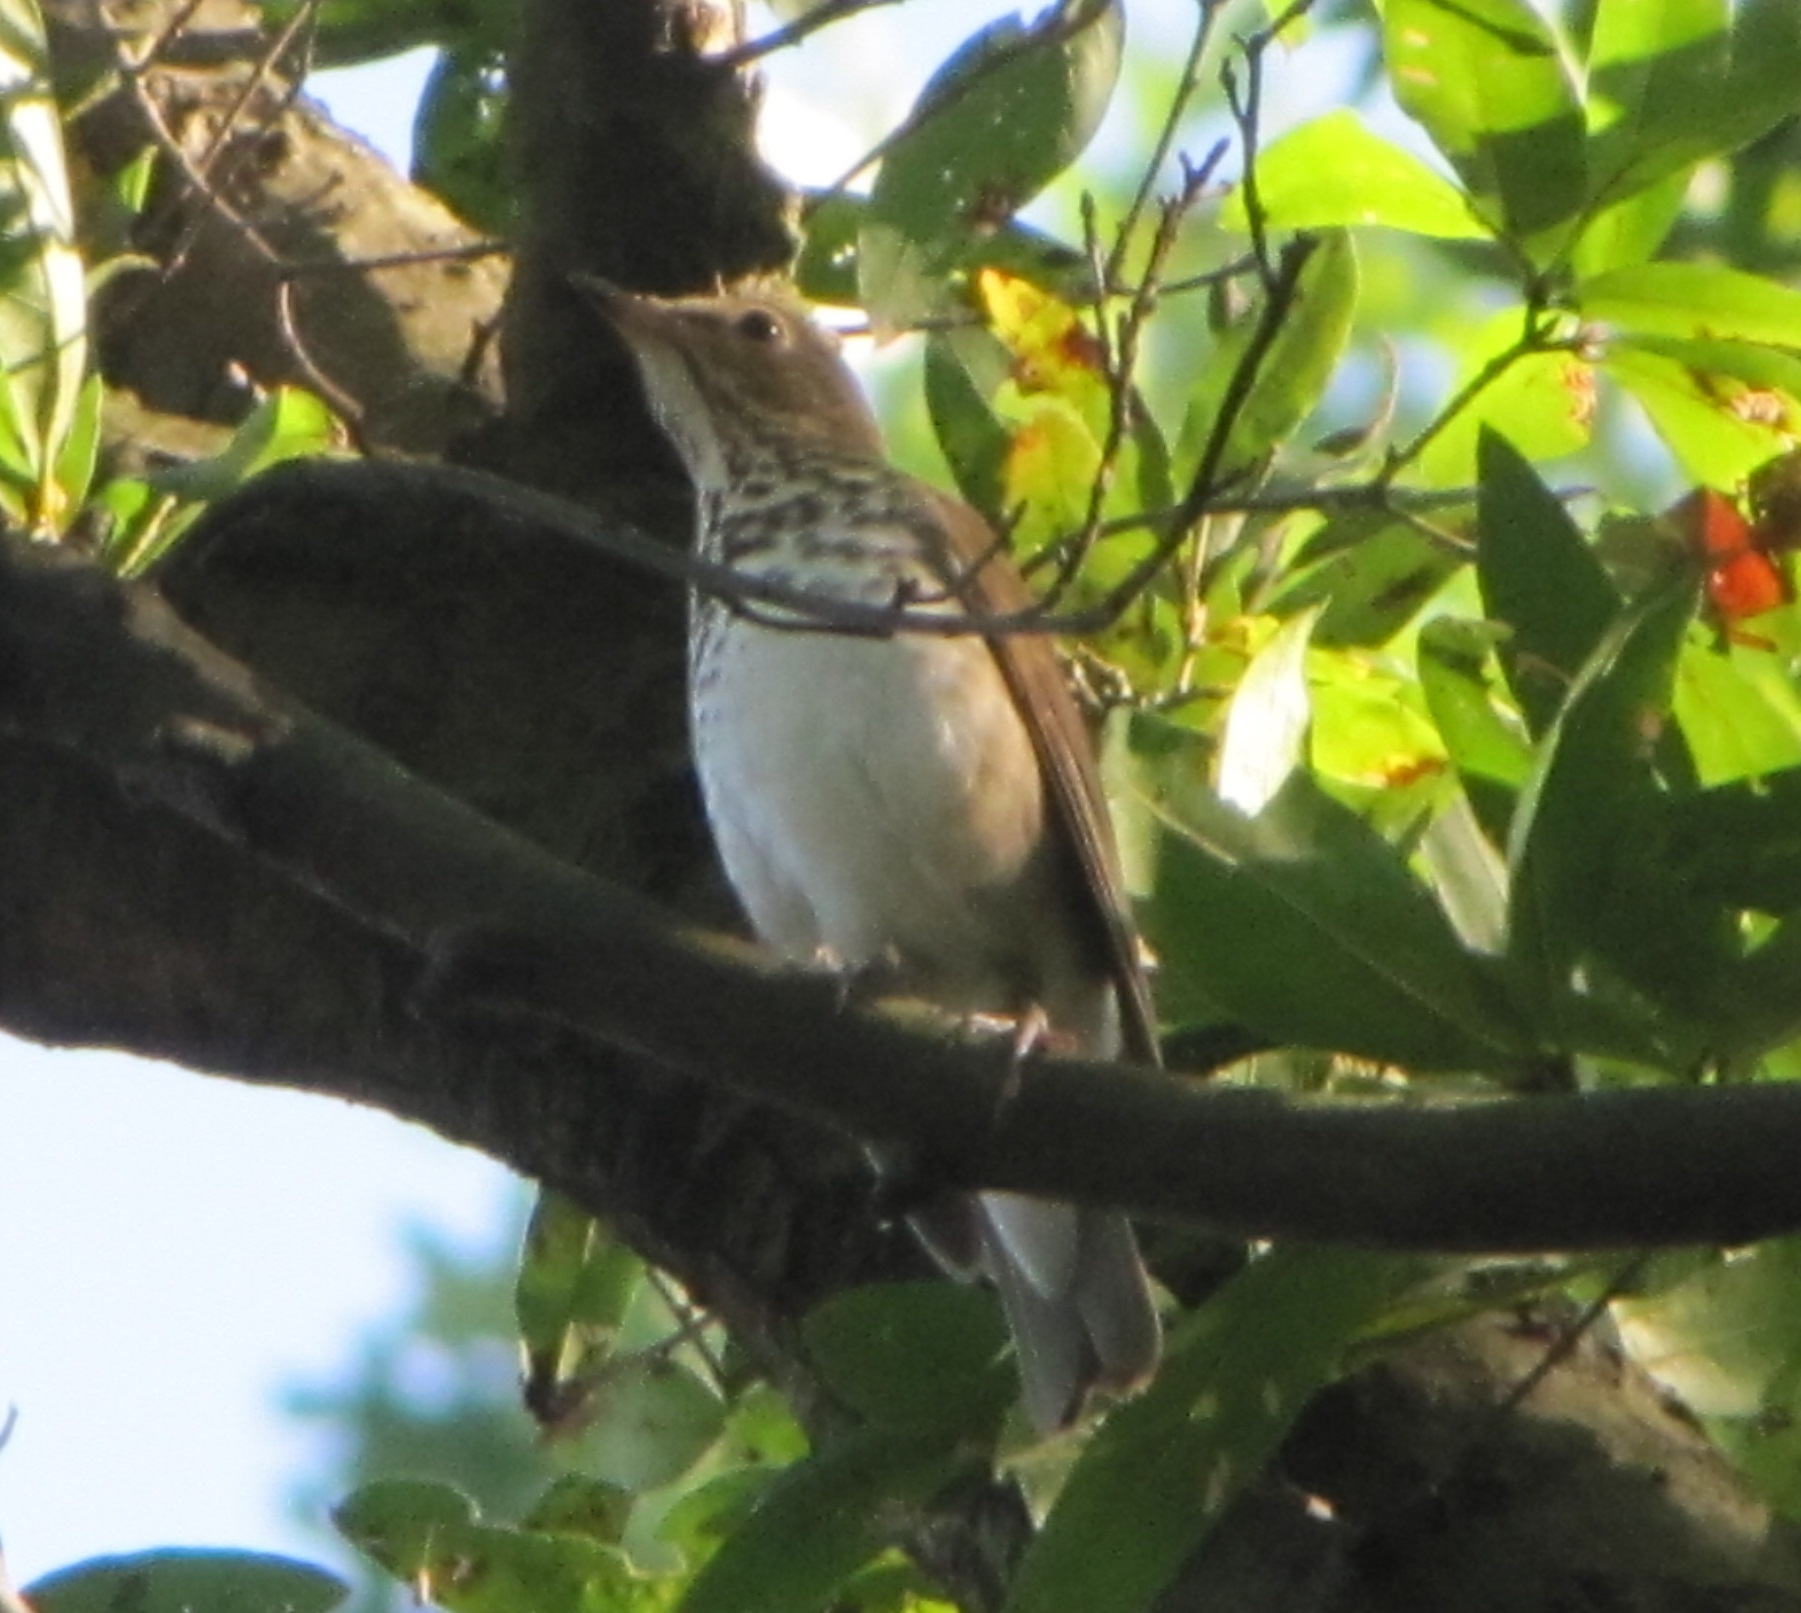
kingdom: Animalia
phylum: Chordata
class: Aves
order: Passeriformes
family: Turdidae
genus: Catharus
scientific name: Catharus ustulatus
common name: Swainson's thrush
